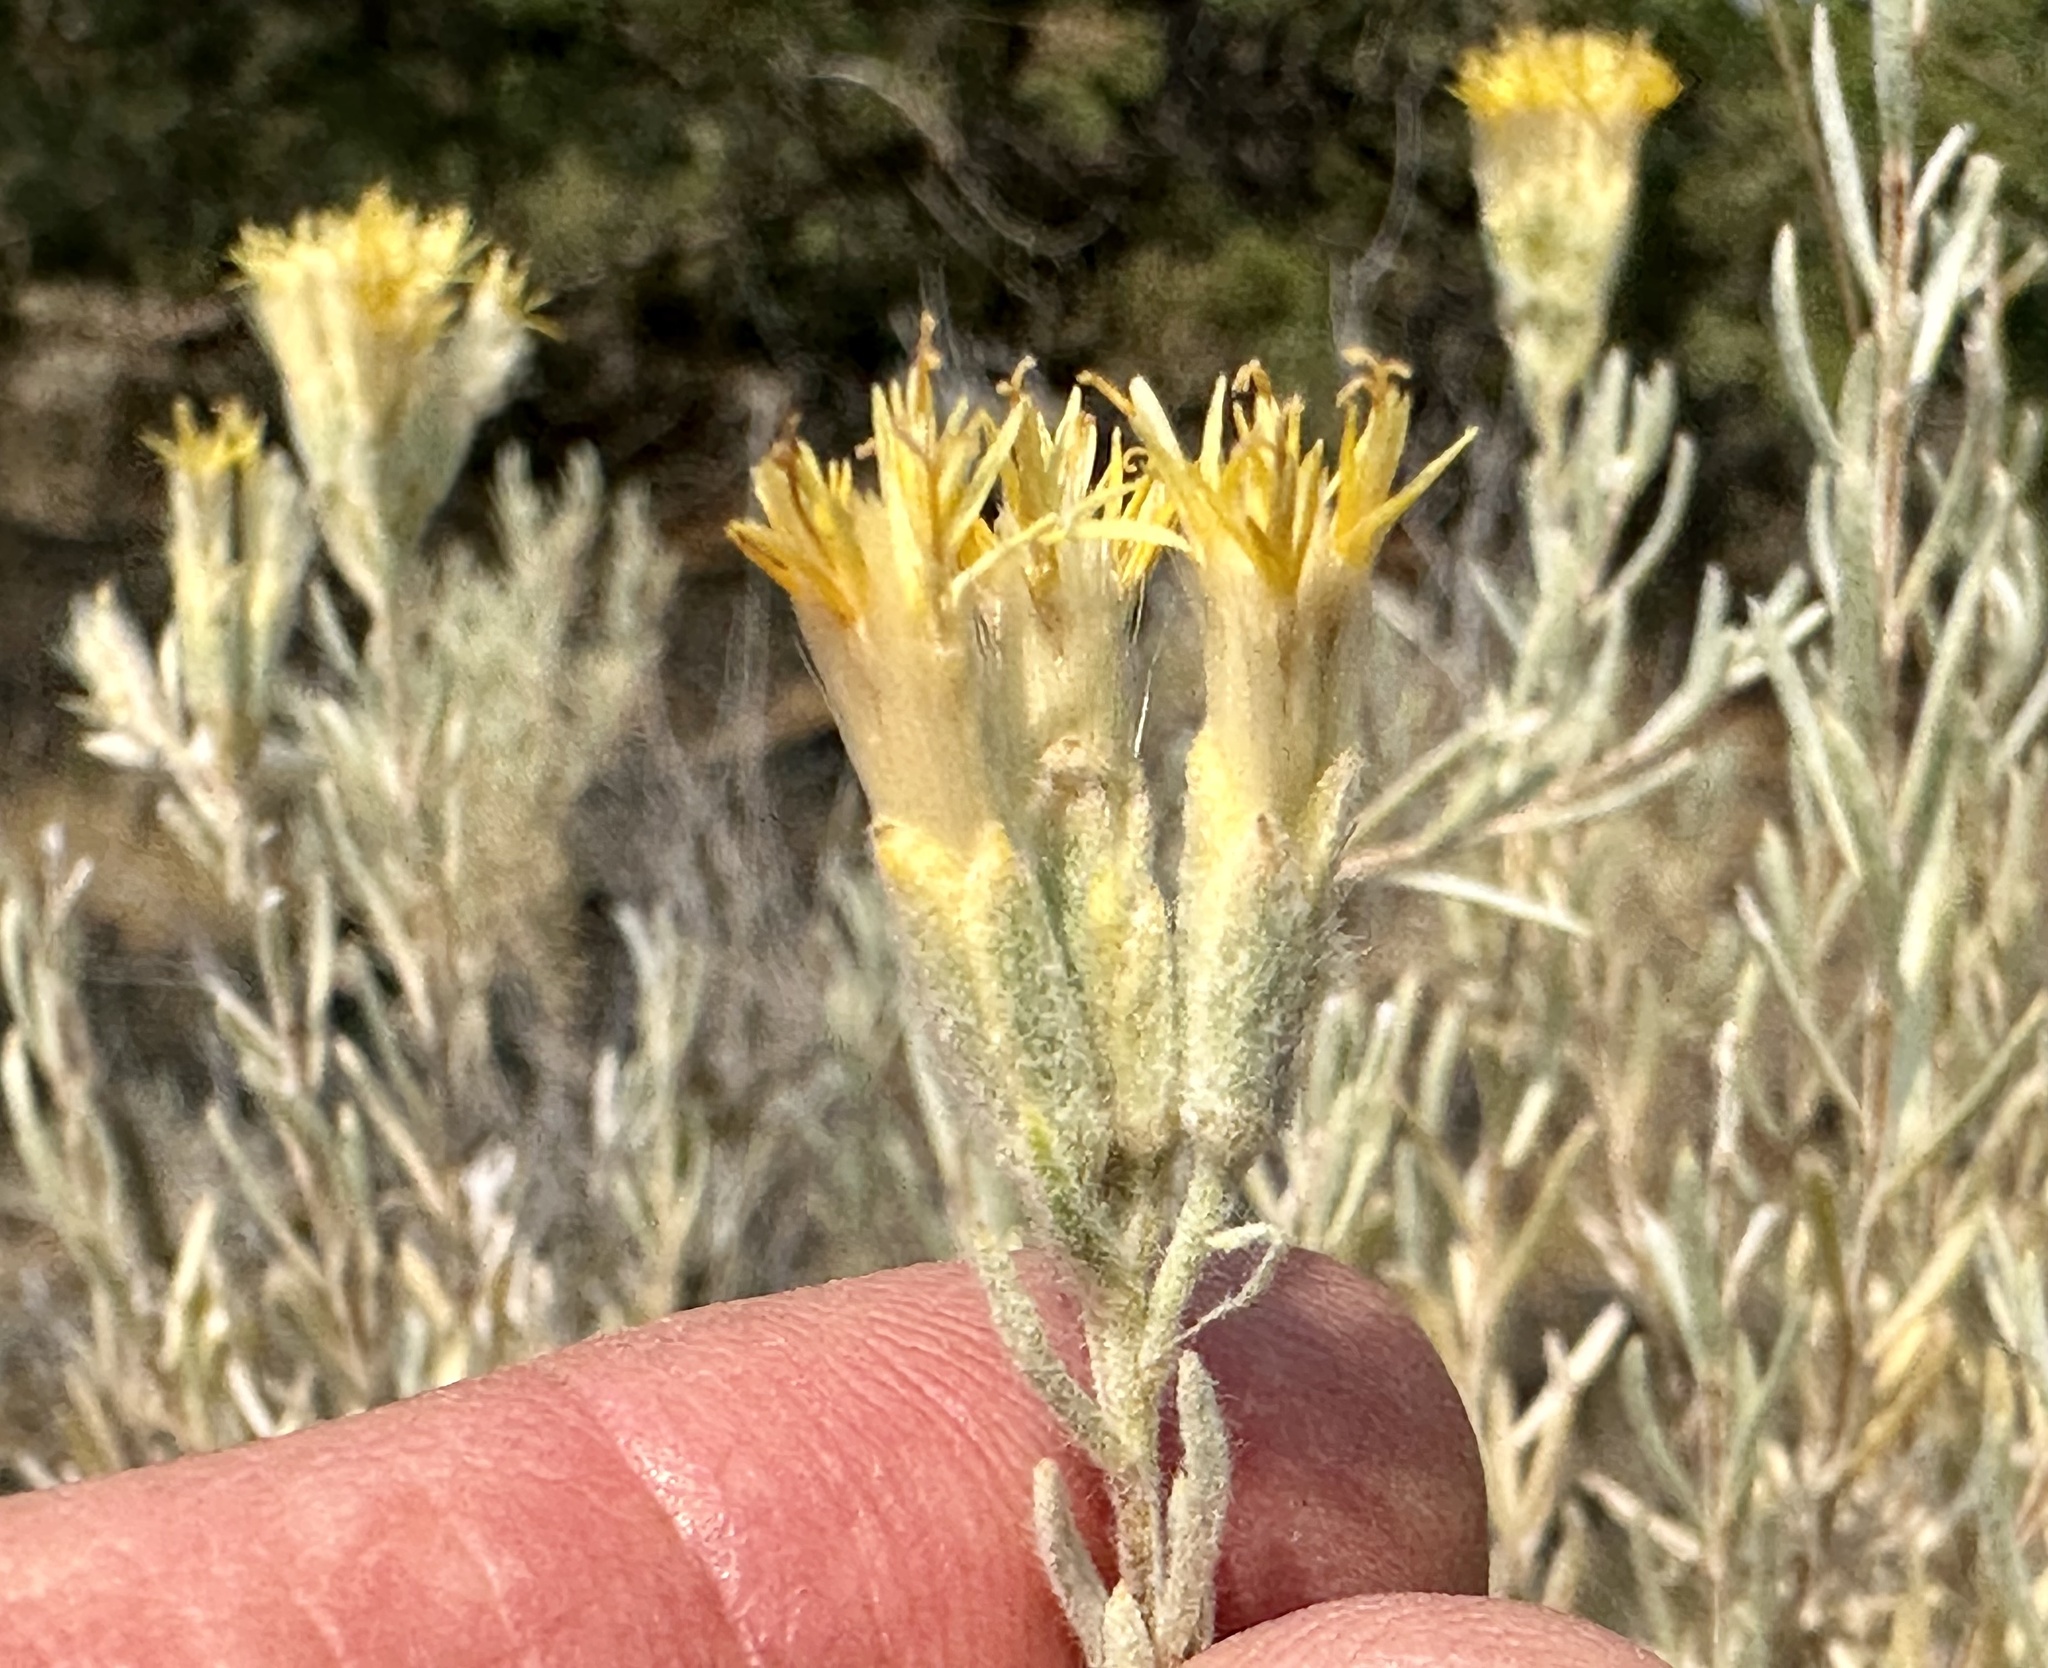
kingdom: Plantae
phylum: Tracheophyta
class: Magnoliopsida
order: Asterales
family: Asteraceae
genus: Tetradymia
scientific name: Tetradymia canescens
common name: Spineless horsebrush
